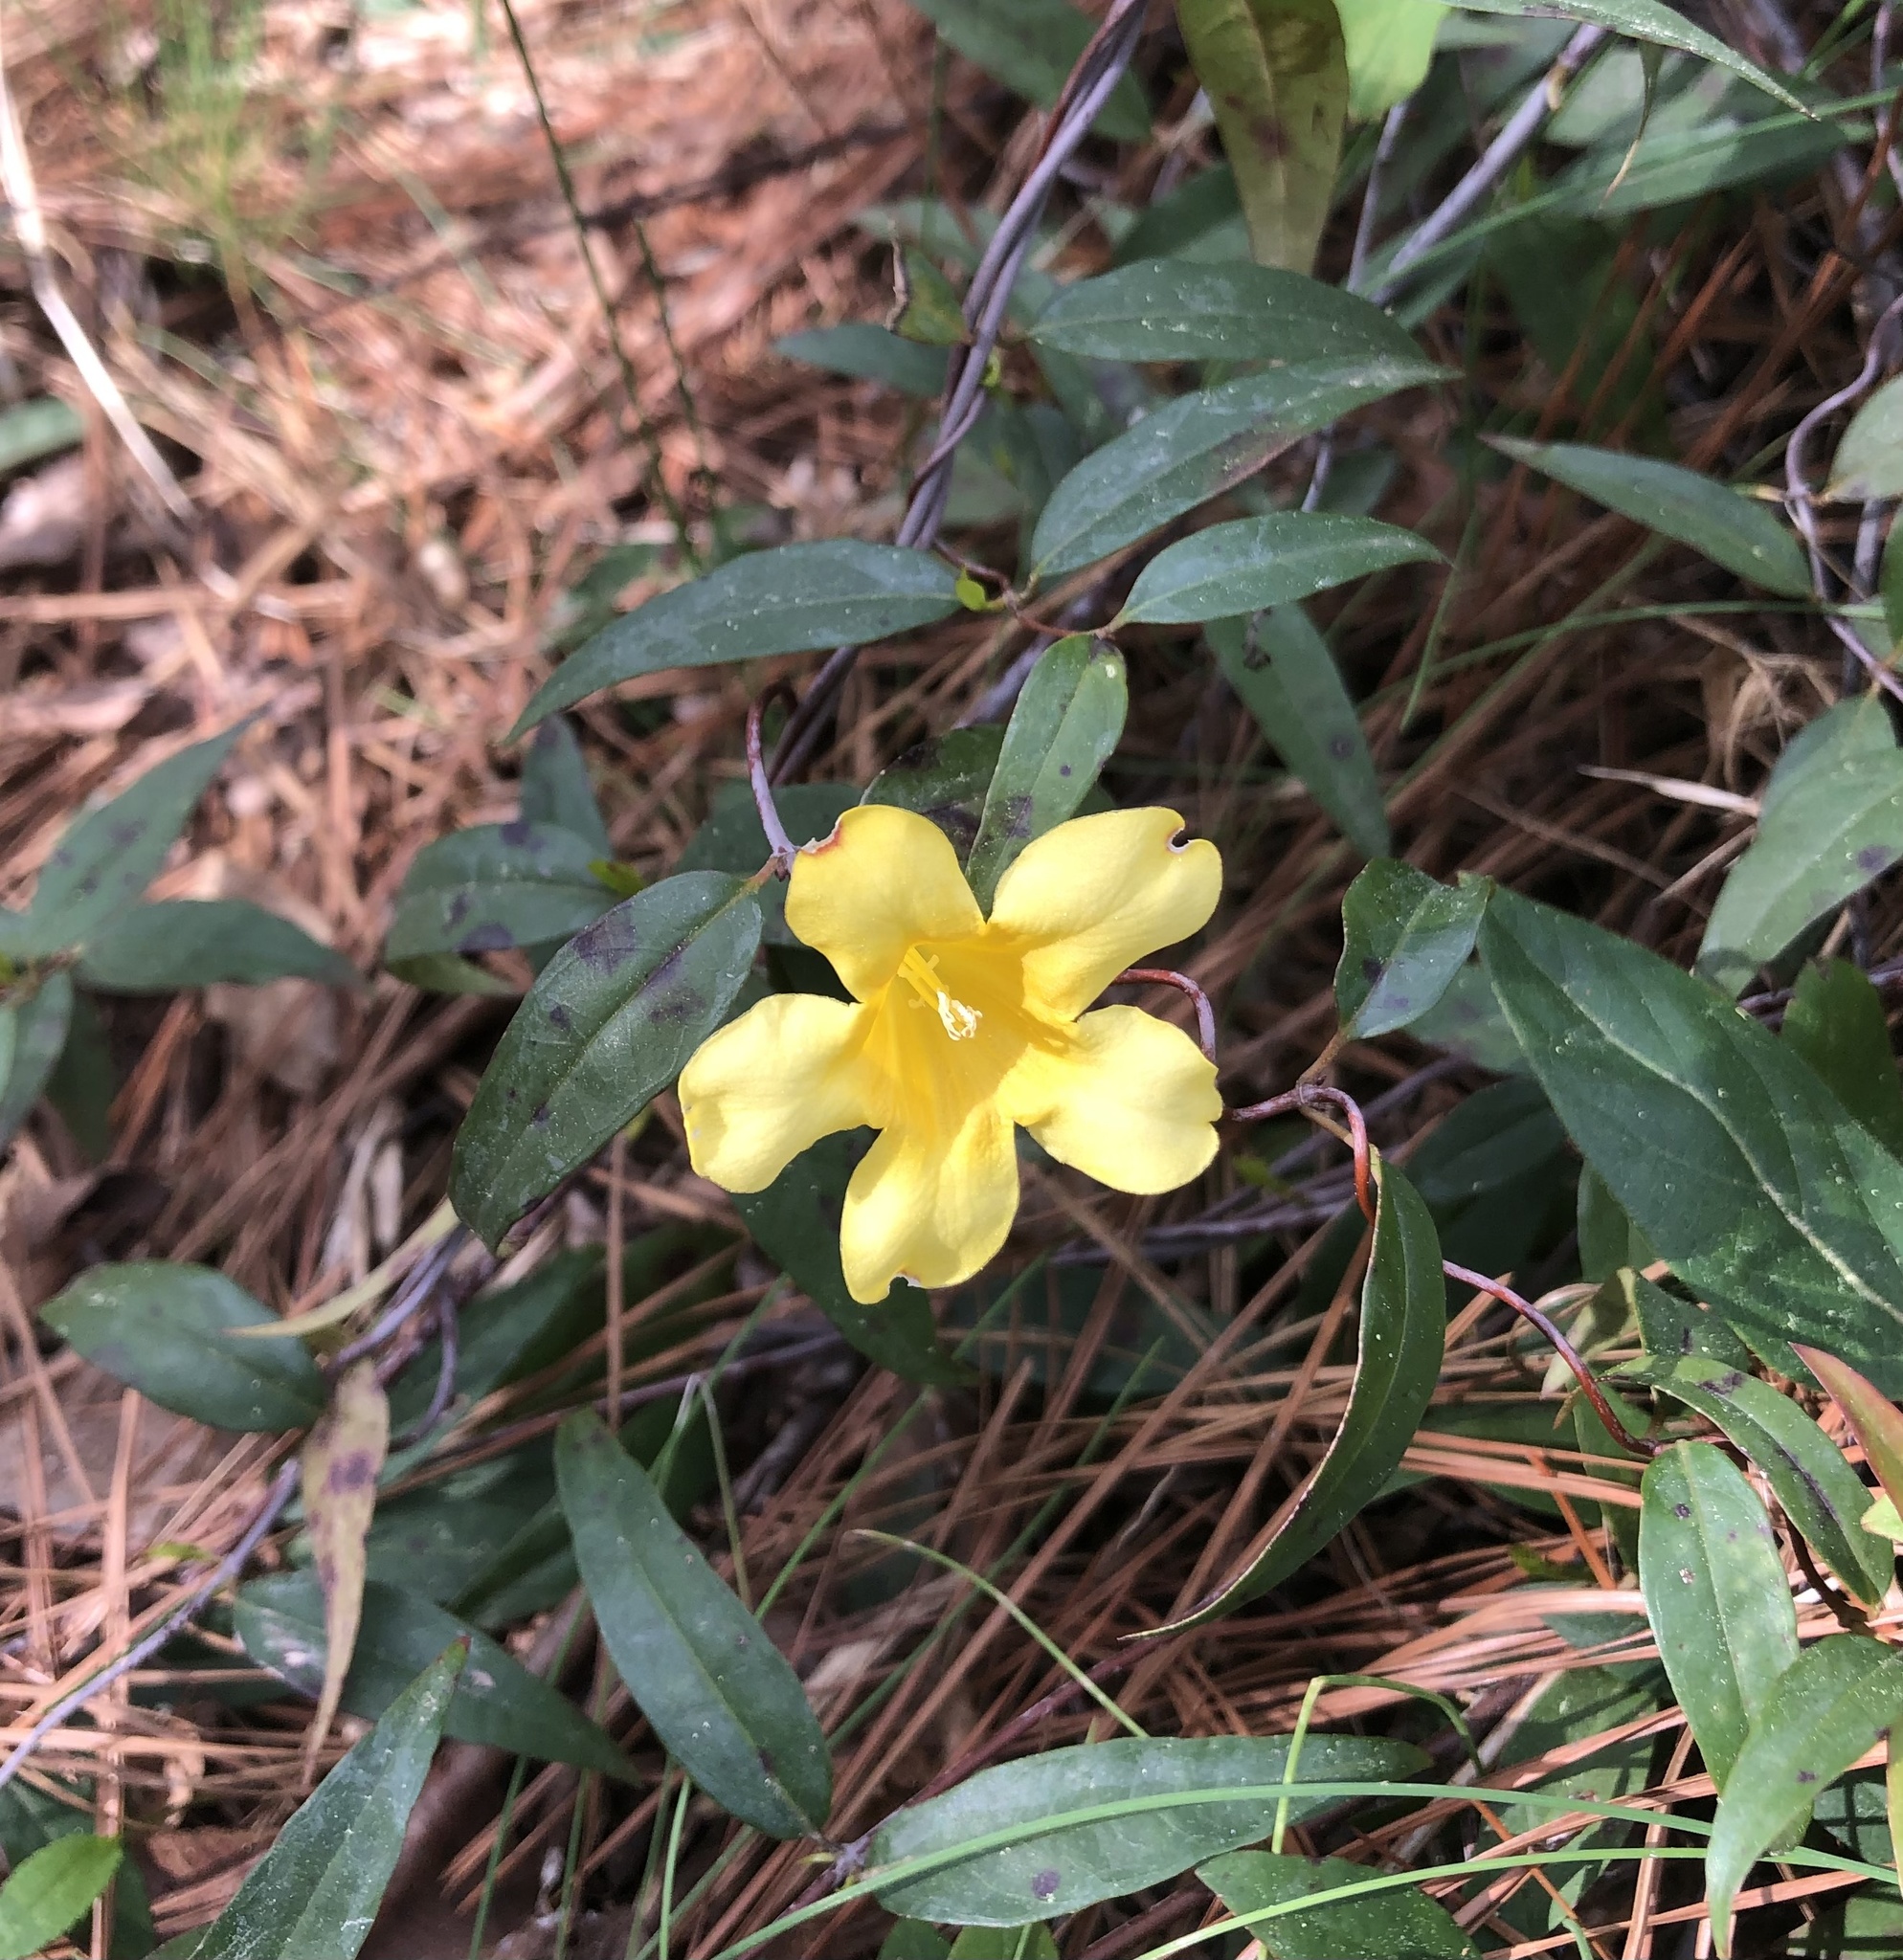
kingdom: Plantae
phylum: Tracheophyta
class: Magnoliopsida
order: Gentianales
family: Gelsemiaceae
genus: Gelsemium
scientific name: Gelsemium sempervirens
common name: Carolina-jasmine
